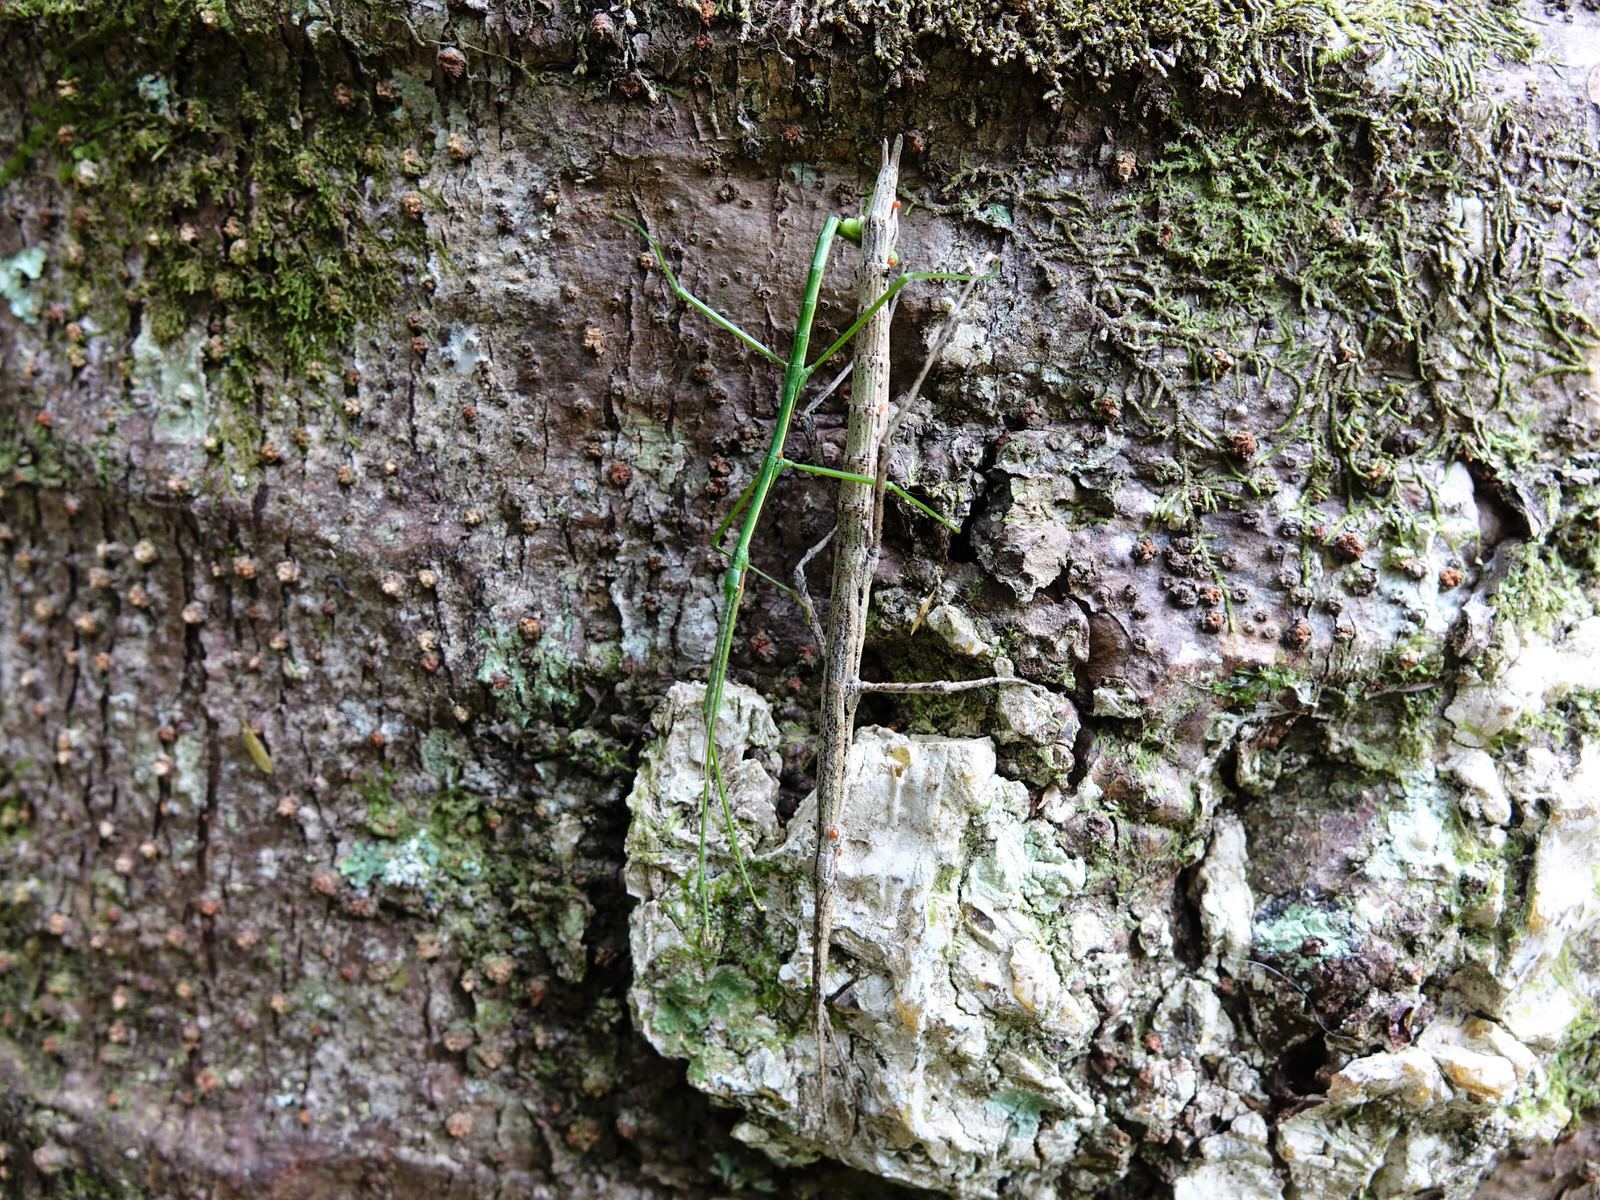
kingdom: Animalia
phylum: Arthropoda
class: Insecta
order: Phasmida
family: Phasmatidae
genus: Clitarchus
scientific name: Clitarchus hookeri
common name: Smooth stick insect
